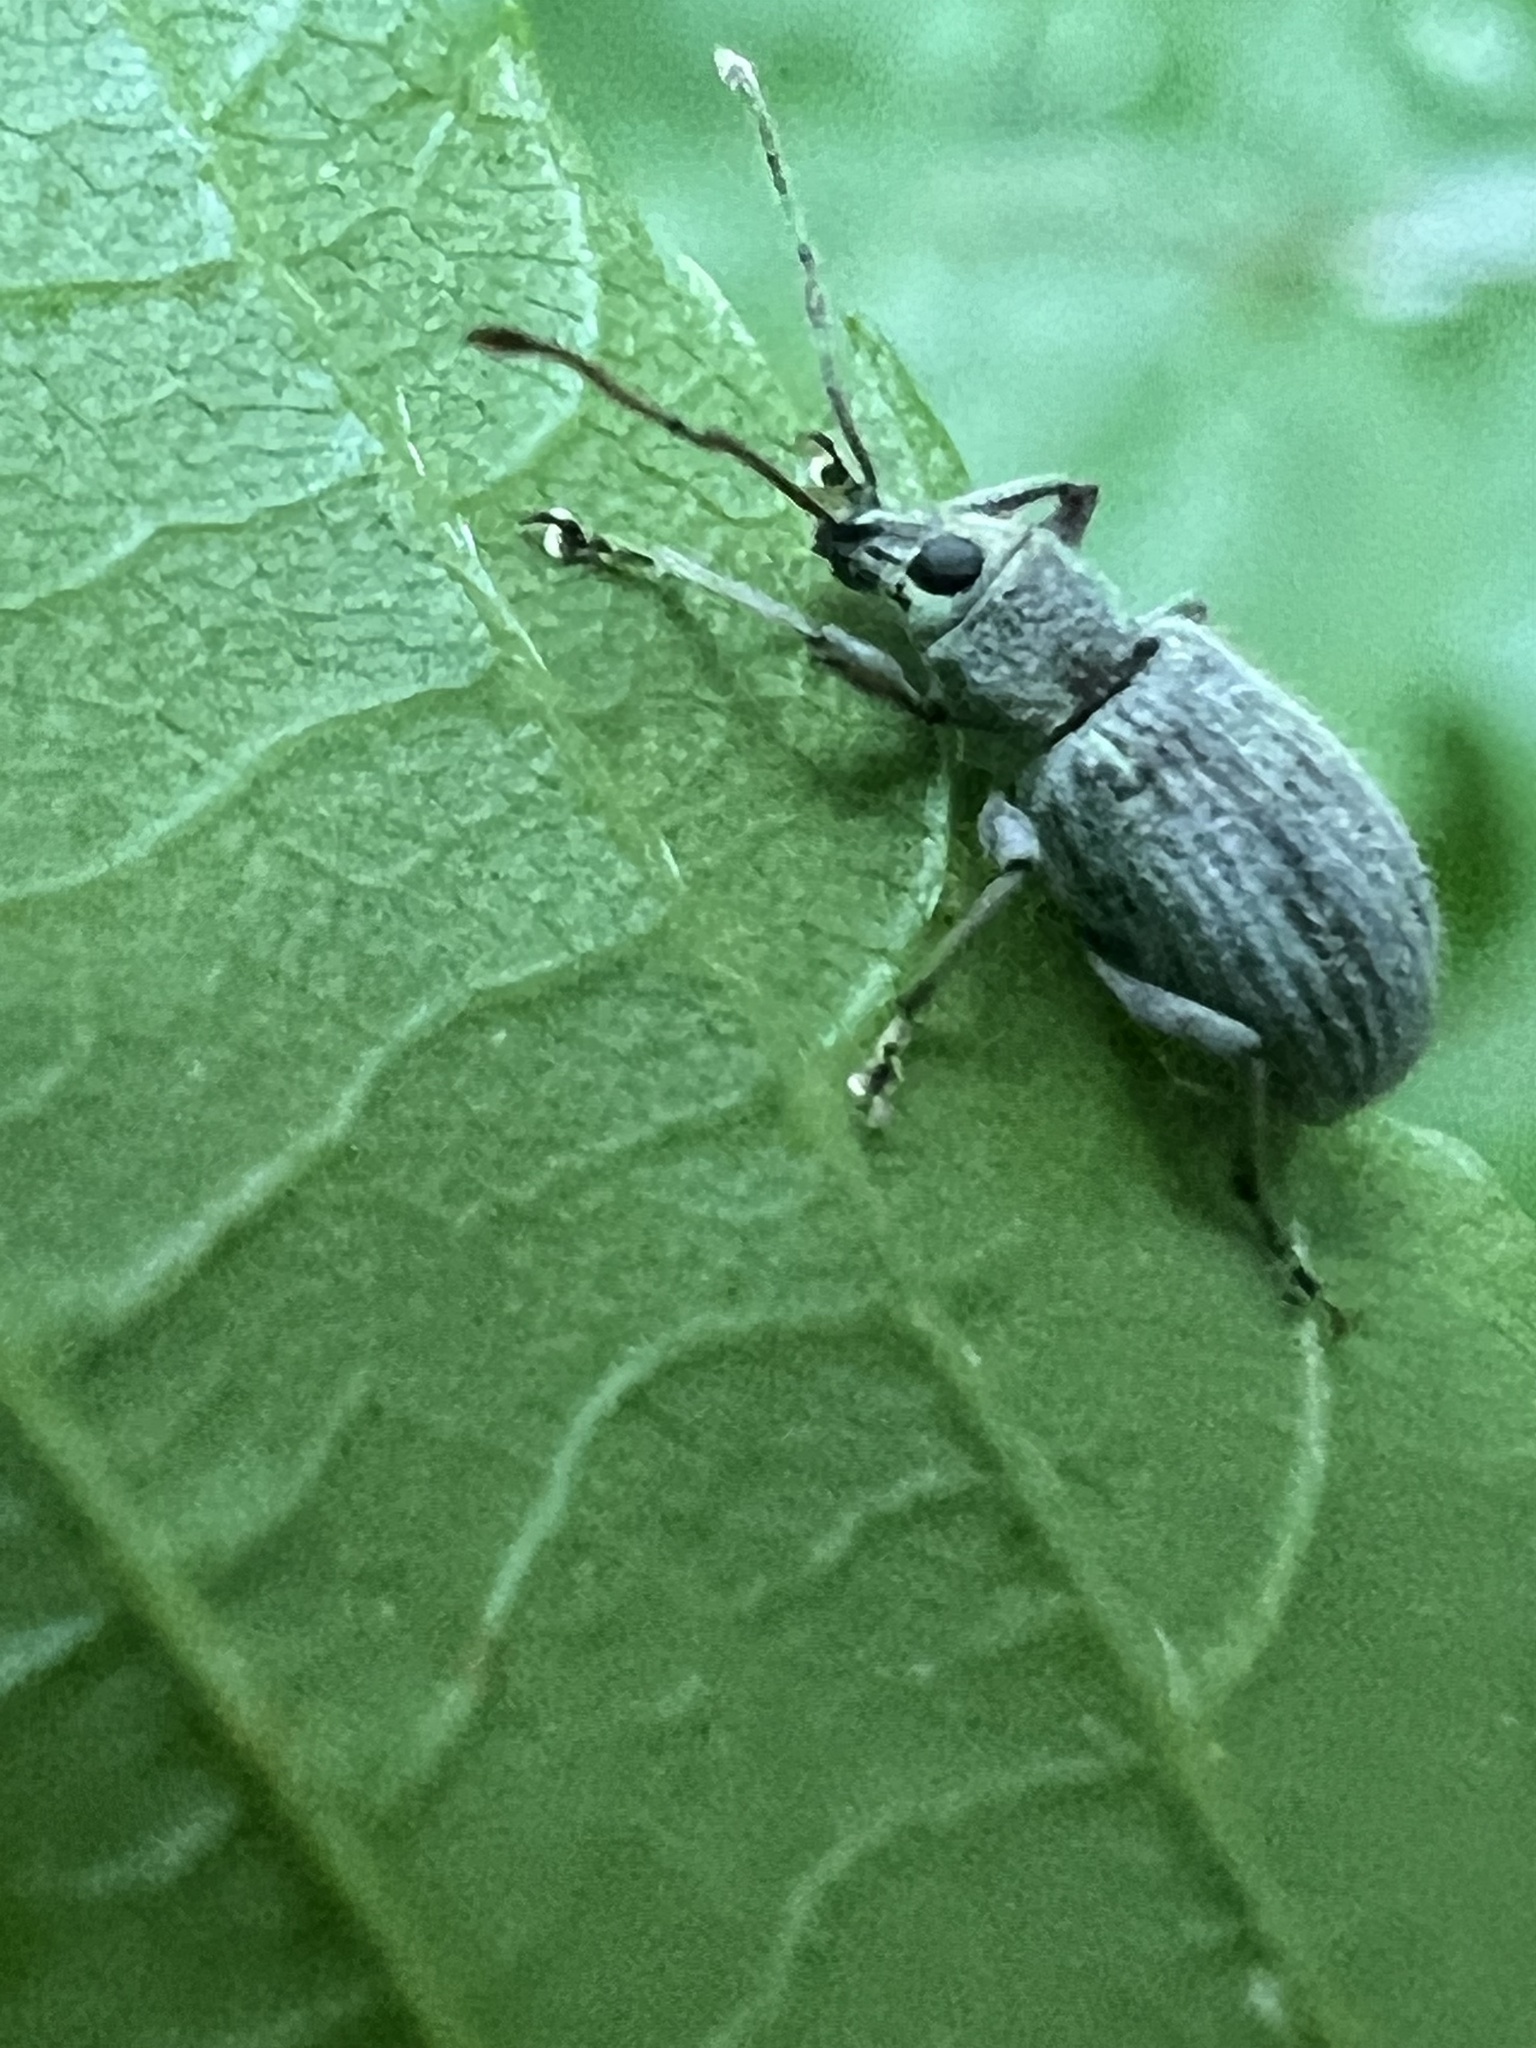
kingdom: Animalia
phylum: Arthropoda
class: Insecta
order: Coleoptera
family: Curculionidae
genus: Cyrtepistomus
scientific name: Cyrtepistomus castaneus
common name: Weevil
